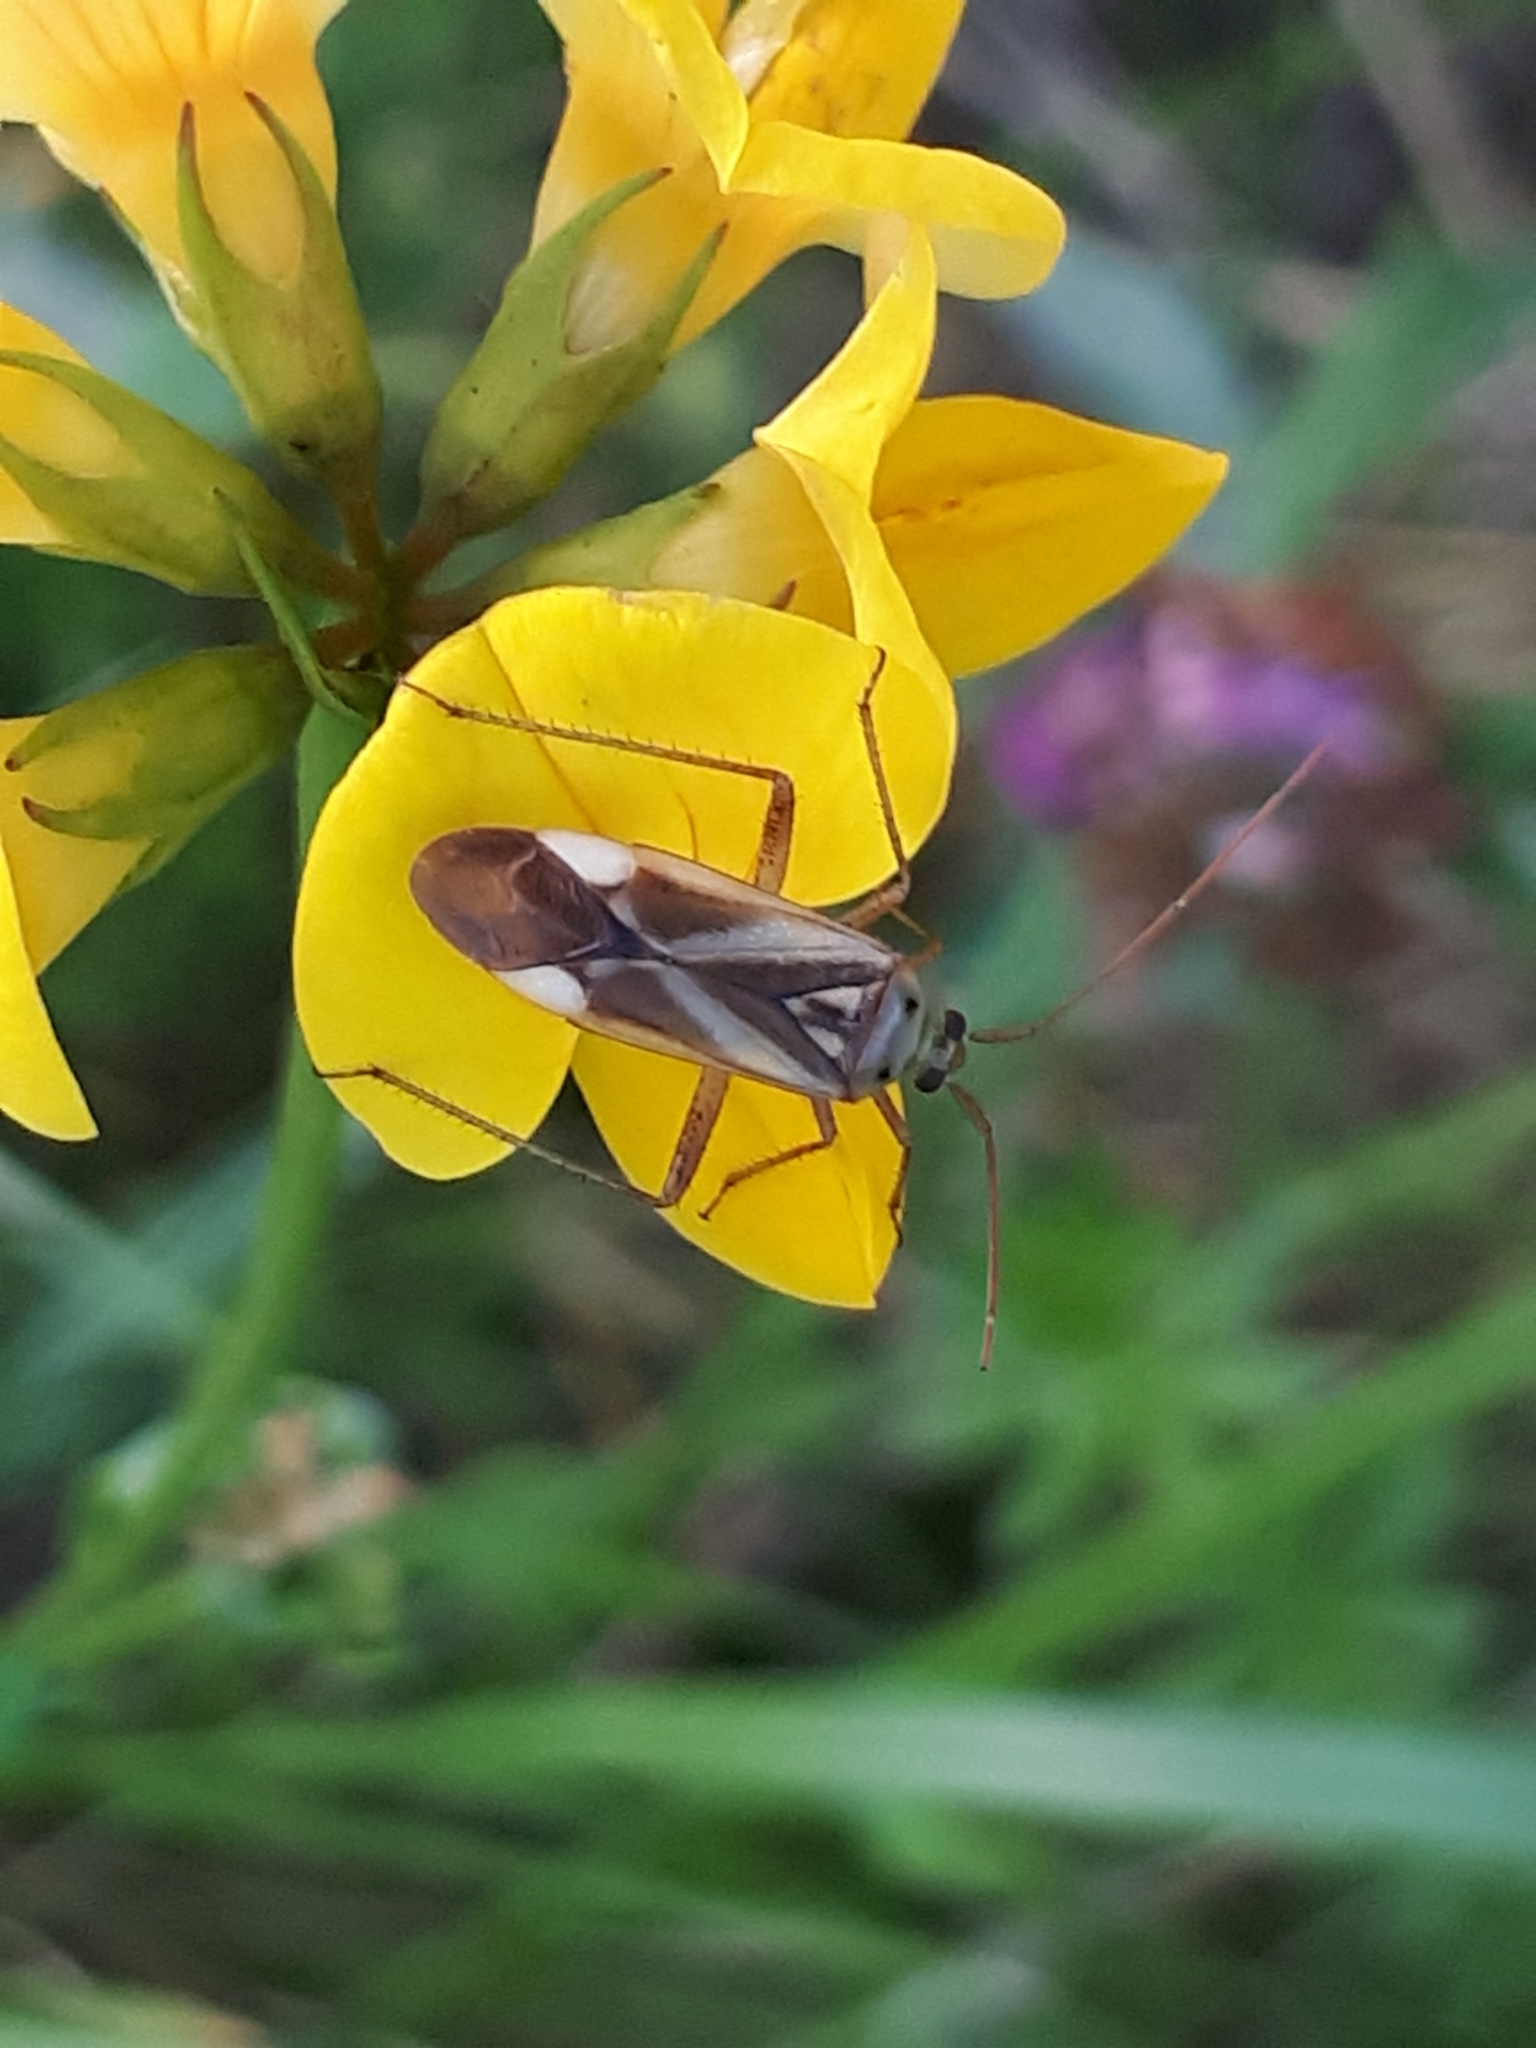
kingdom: Animalia
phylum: Arthropoda
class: Insecta
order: Hemiptera
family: Miridae
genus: Adelphocoris
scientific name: Adelphocoris lineolatus
